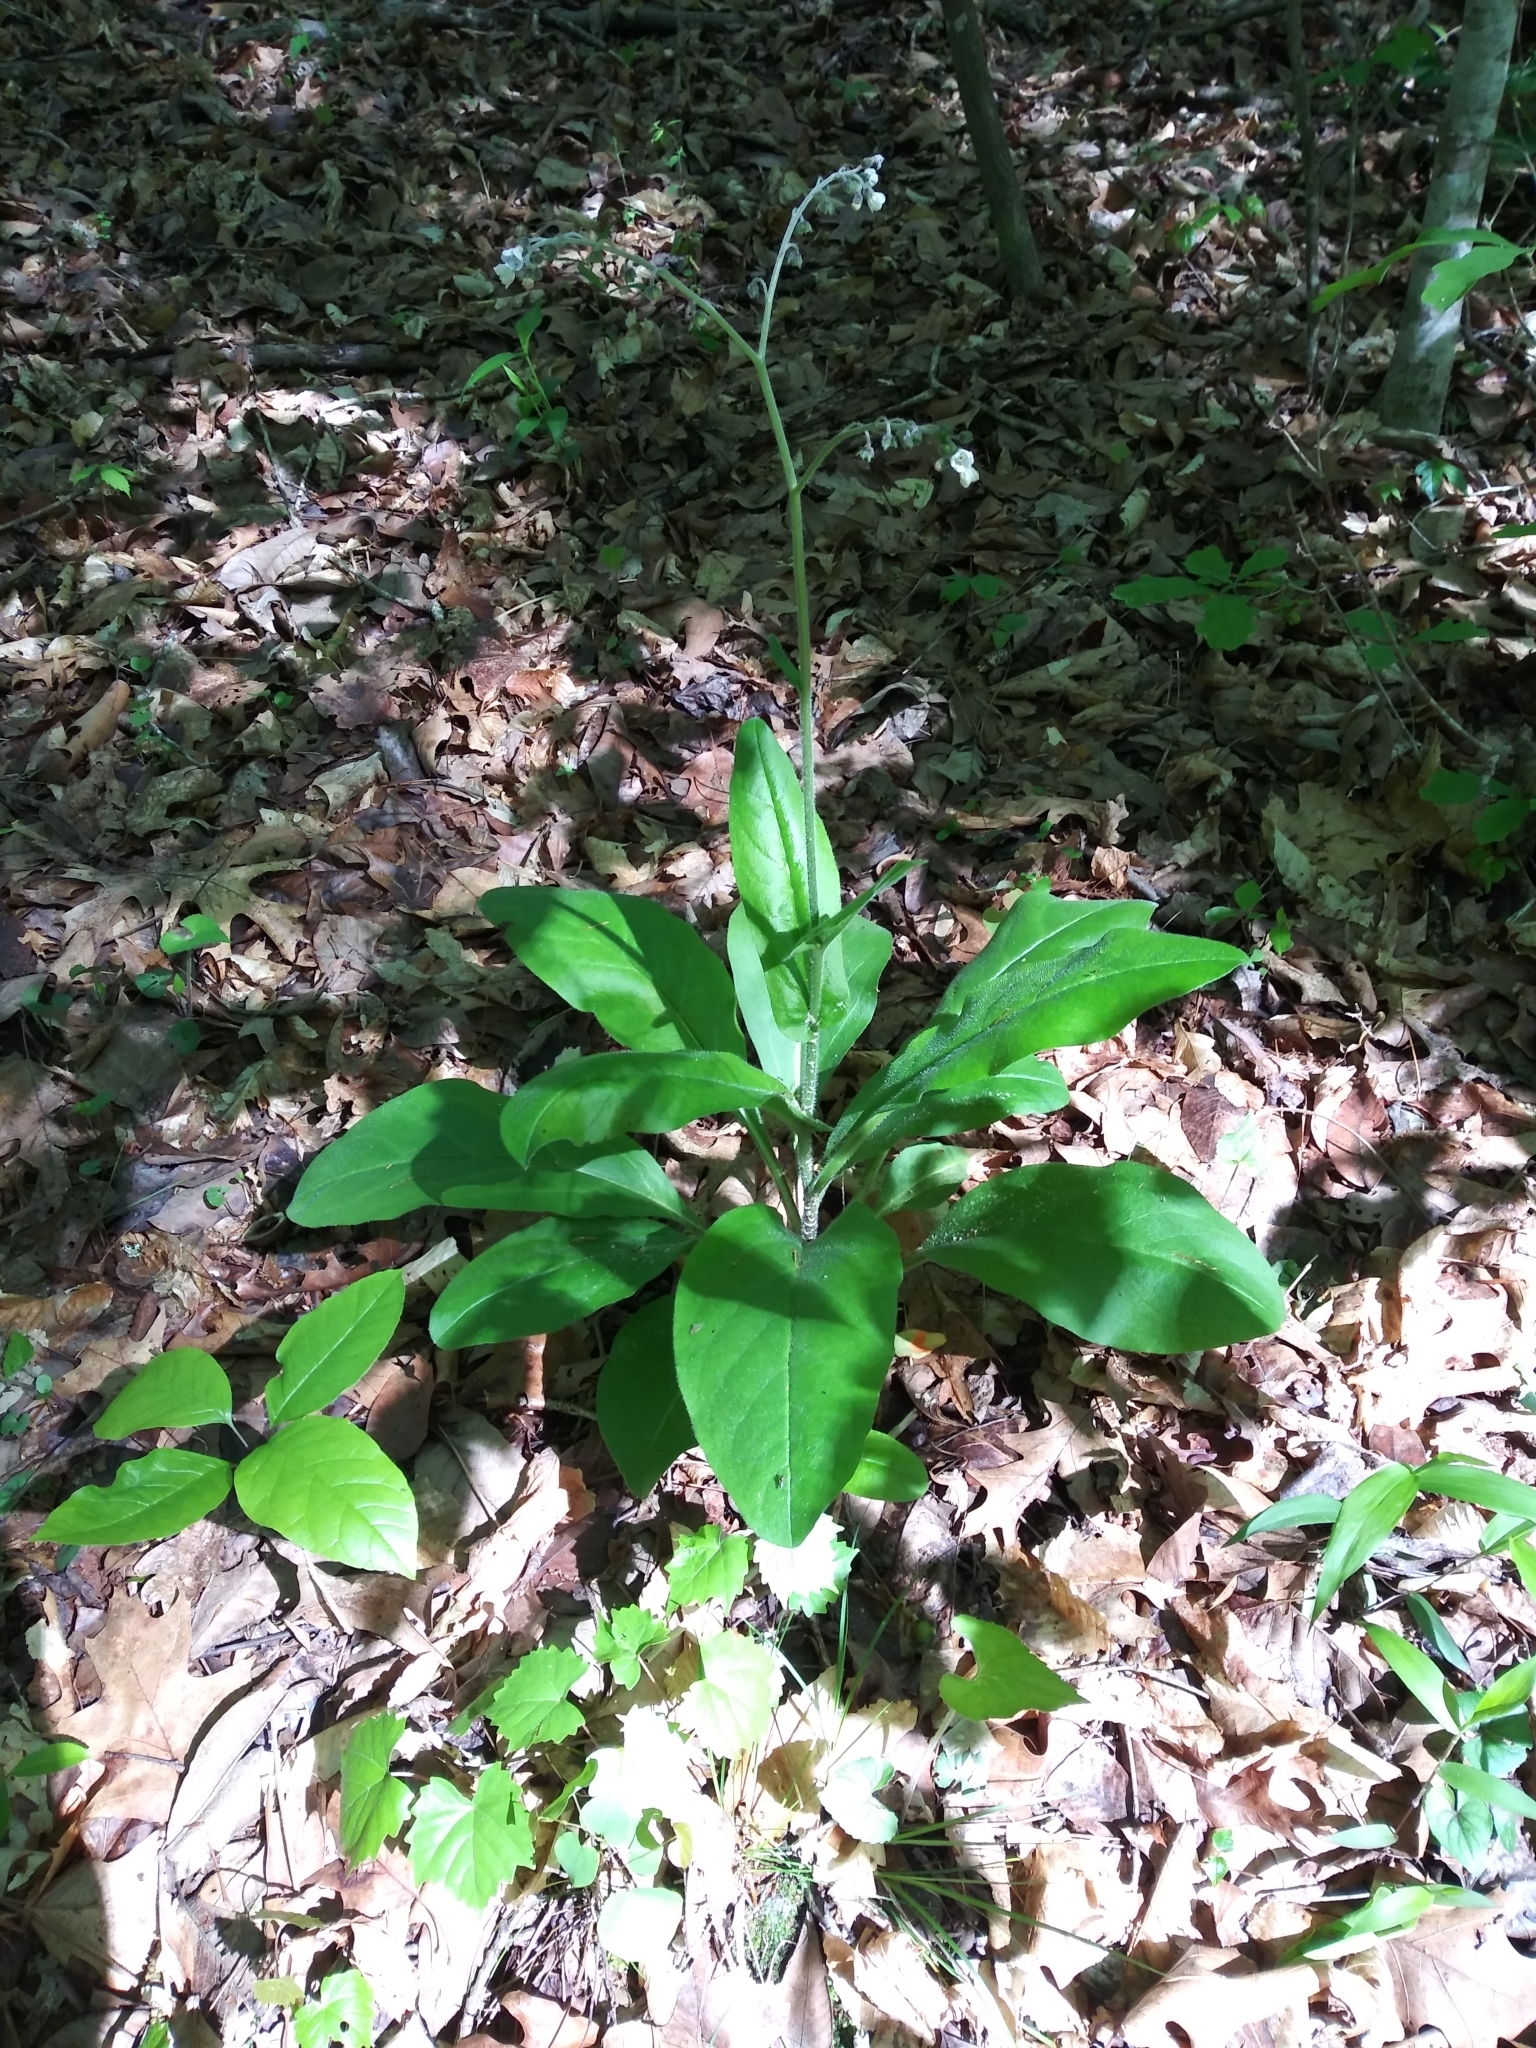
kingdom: Plantae
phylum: Tracheophyta
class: Magnoliopsida
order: Boraginales
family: Boraginaceae
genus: Andersonglossum
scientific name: Andersonglossum virginianum
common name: Wild comfrey
